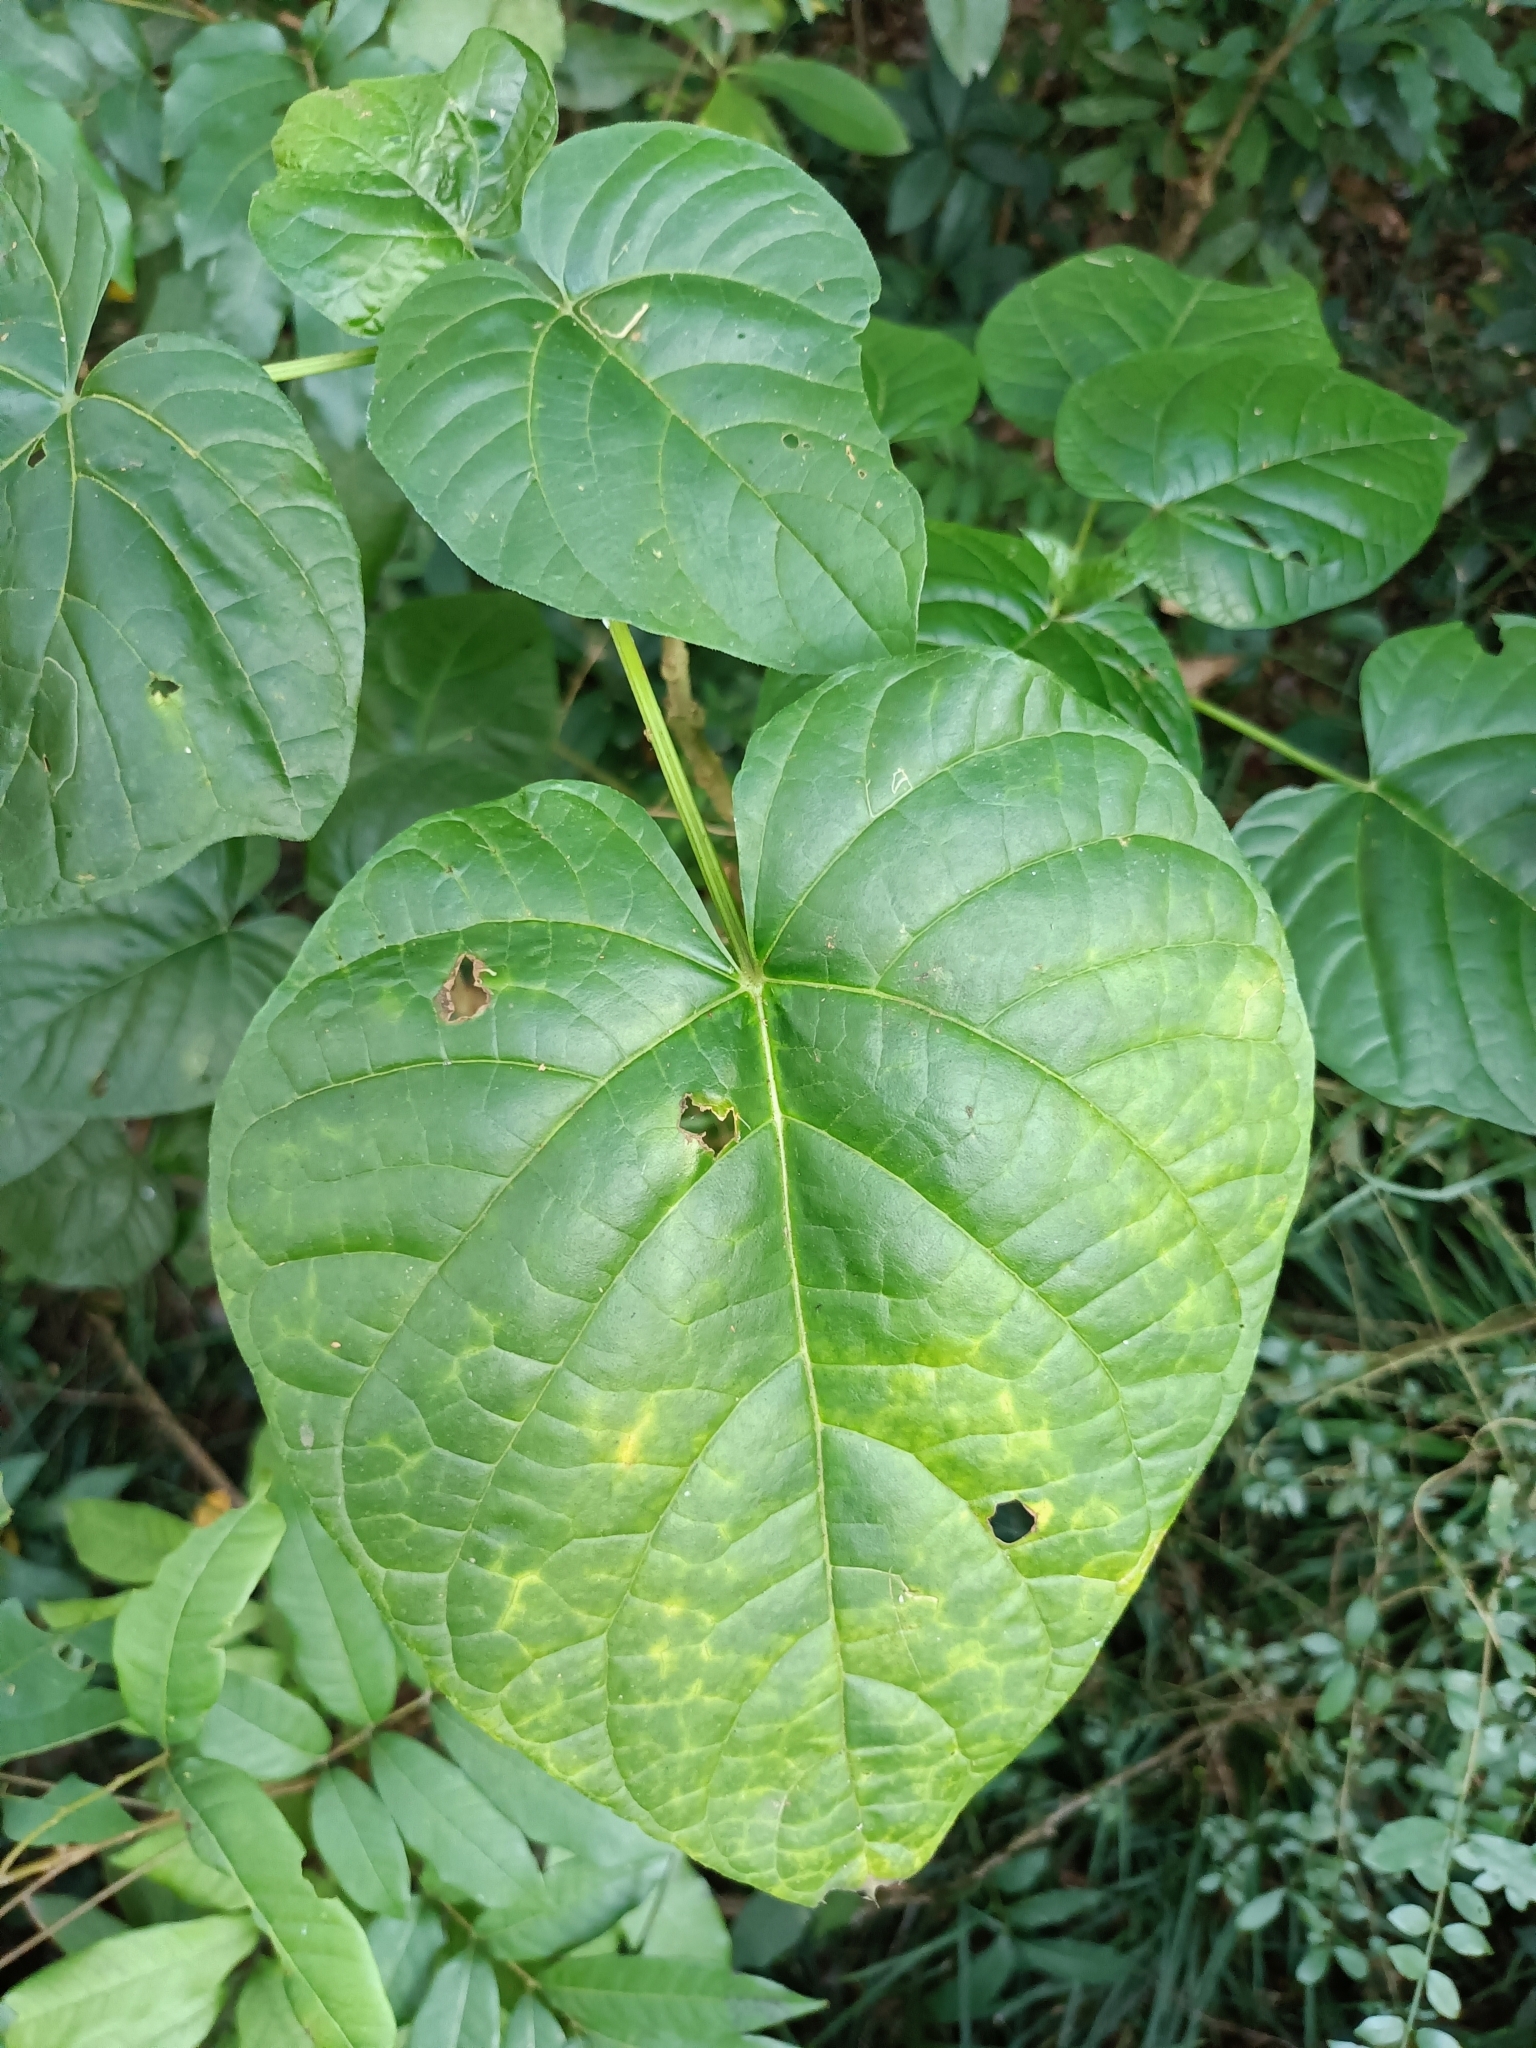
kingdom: Plantae
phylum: Tracheophyta
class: Magnoliopsida
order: Lamiales
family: Lamiaceae
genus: Clerodendrum
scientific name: Clerodendrum japonicum
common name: Japanese glorybower
